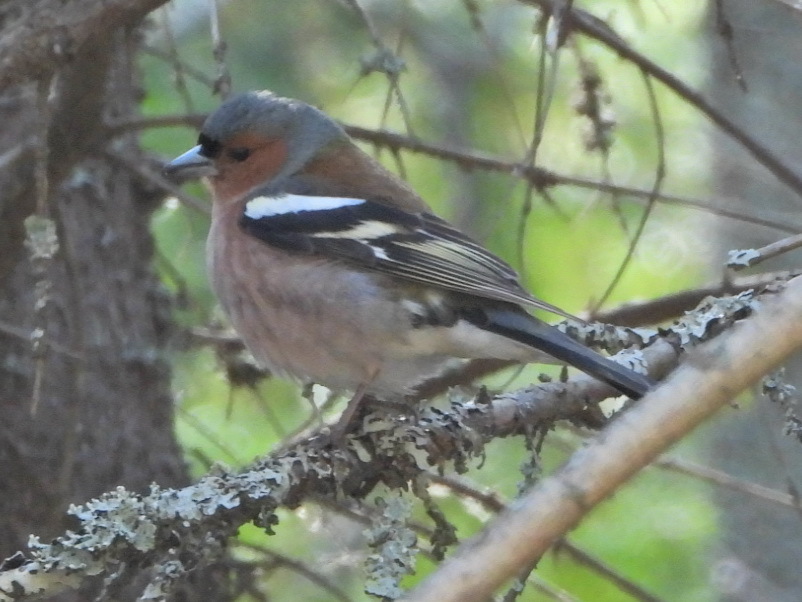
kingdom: Animalia
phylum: Chordata
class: Aves
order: Passeriformes
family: Fringillidae
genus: Fringilla
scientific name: Fringilla coelebs
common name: Common chaffinch
